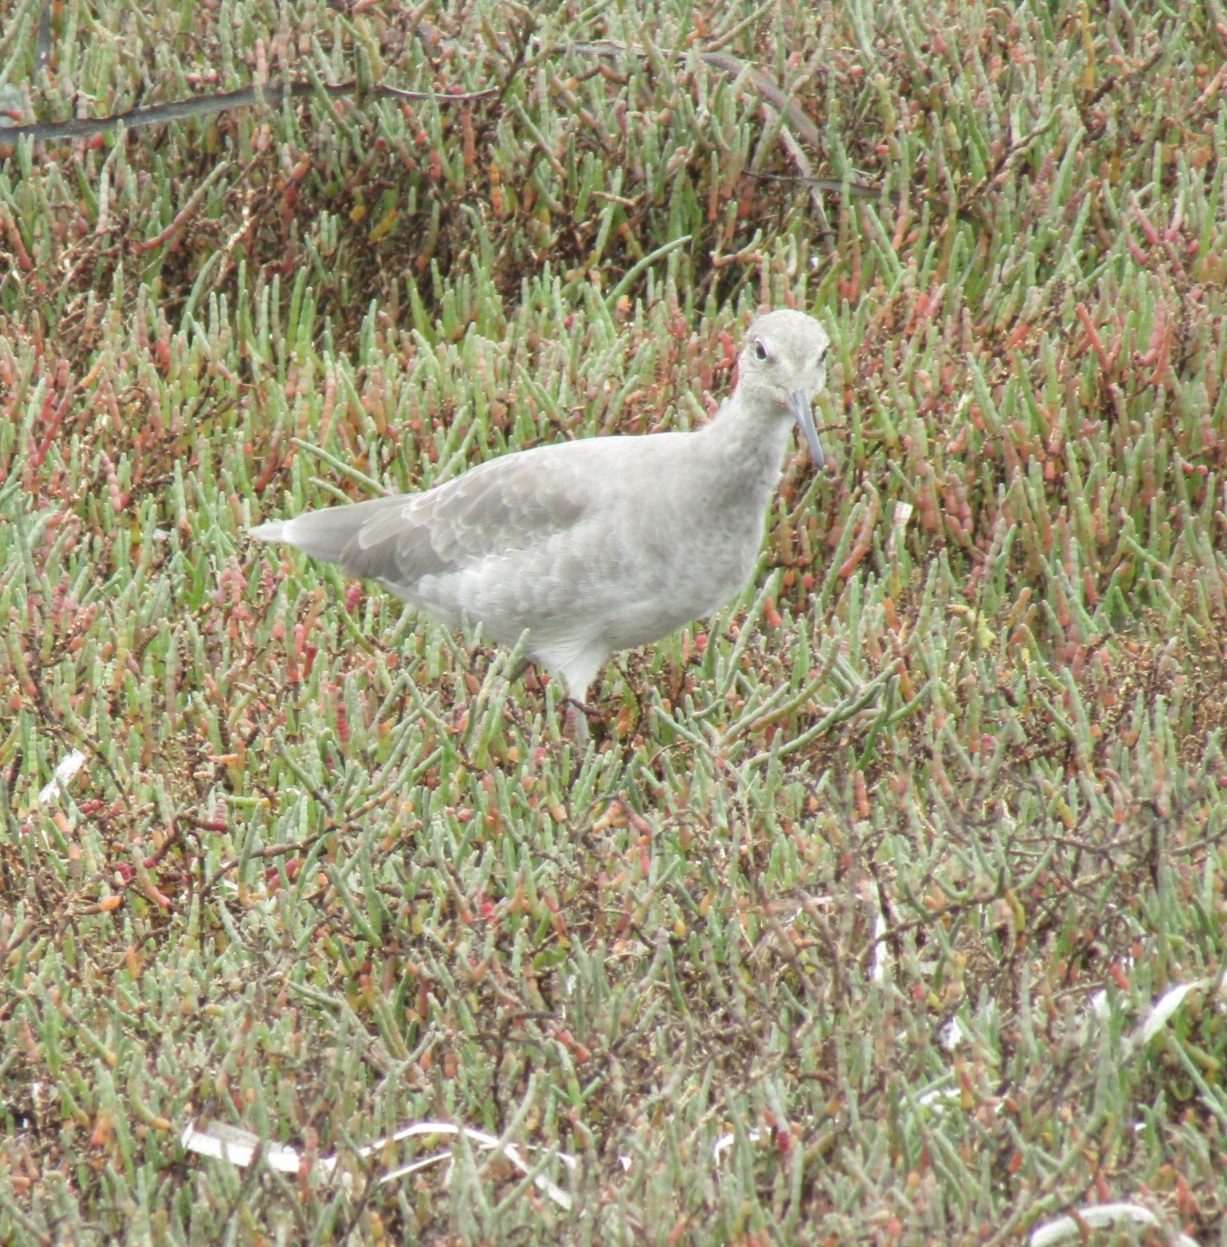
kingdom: Animalia
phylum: Chordata
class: Aves
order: Charadriiformes
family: Scolopacidae
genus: Tringa
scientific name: Tringa semipalmata
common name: Willet
